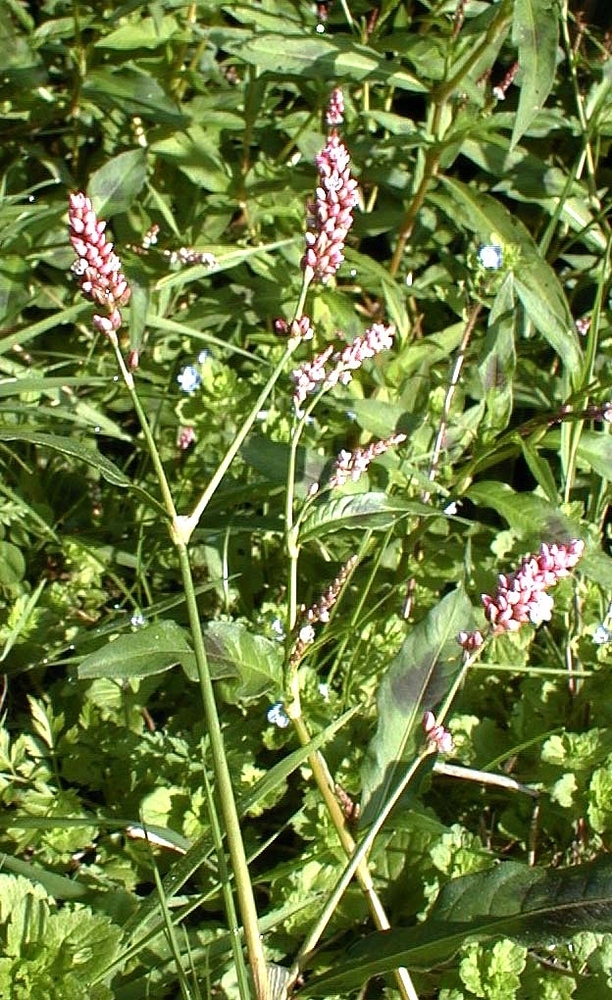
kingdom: Plantae
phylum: Tracheophyta
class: Magnoliopsida
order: Caryophyllales
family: Polygonaceae
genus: Persicaria
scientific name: Persicaria maculosa
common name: Redshank
